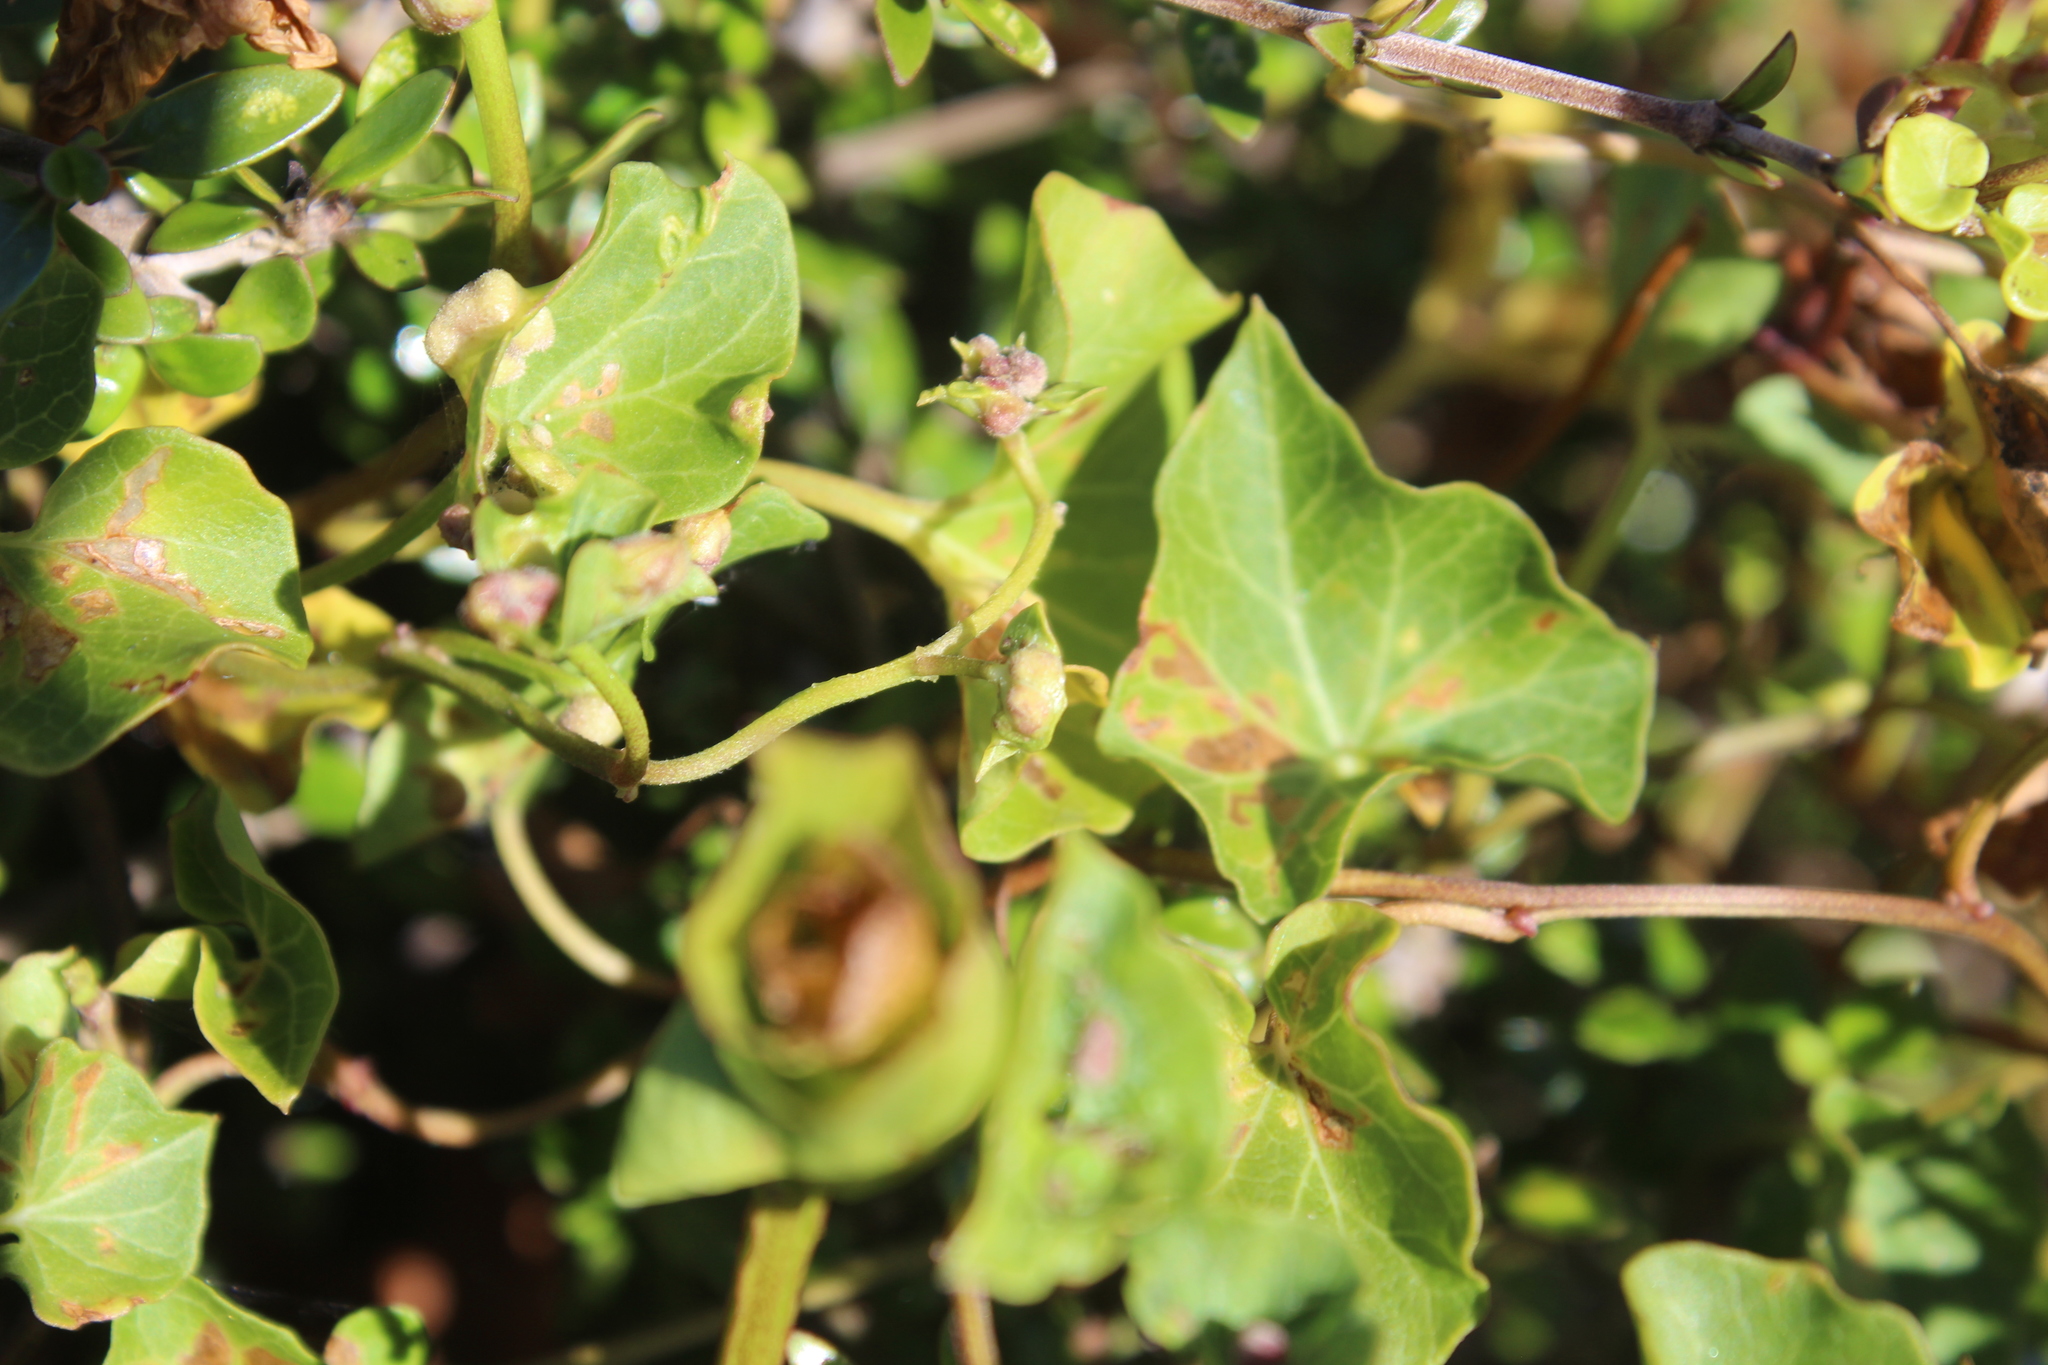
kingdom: Animalia
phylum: Arthropoda
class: Arachnida
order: Trombidiformes
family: Eriophyidae
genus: Aceria
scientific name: Aceria
